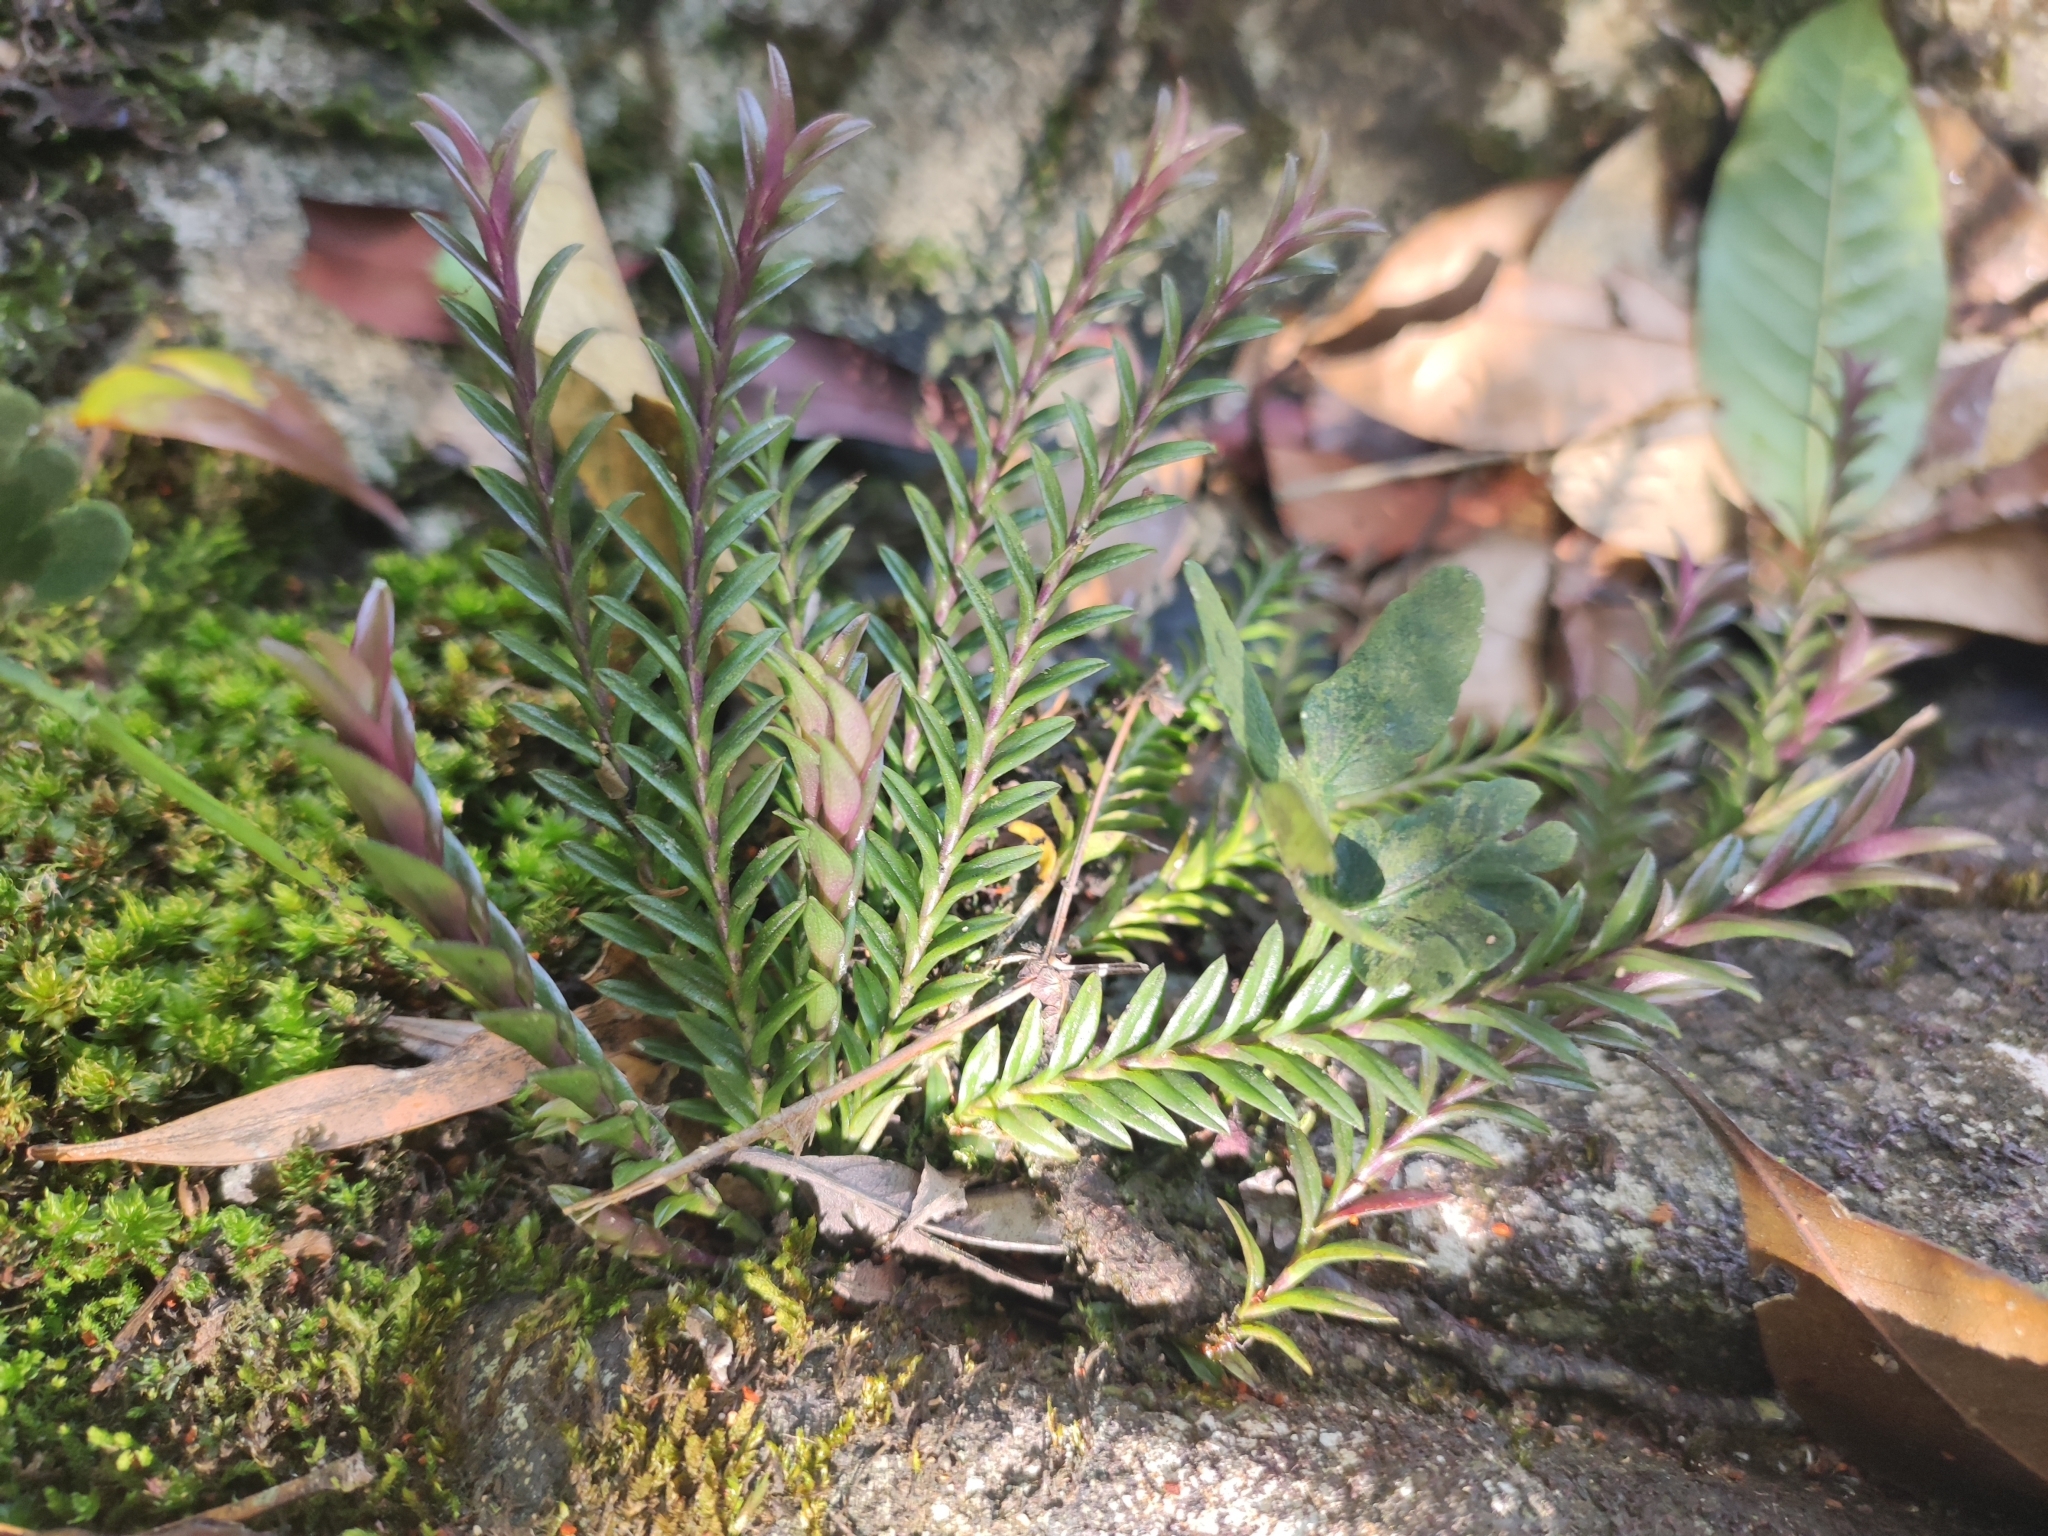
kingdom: Plantae
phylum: Tracheophyta
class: Liliopsida
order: Asparagales
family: Orchidaceae
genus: Podochilus
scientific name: Podochilus khasianus
